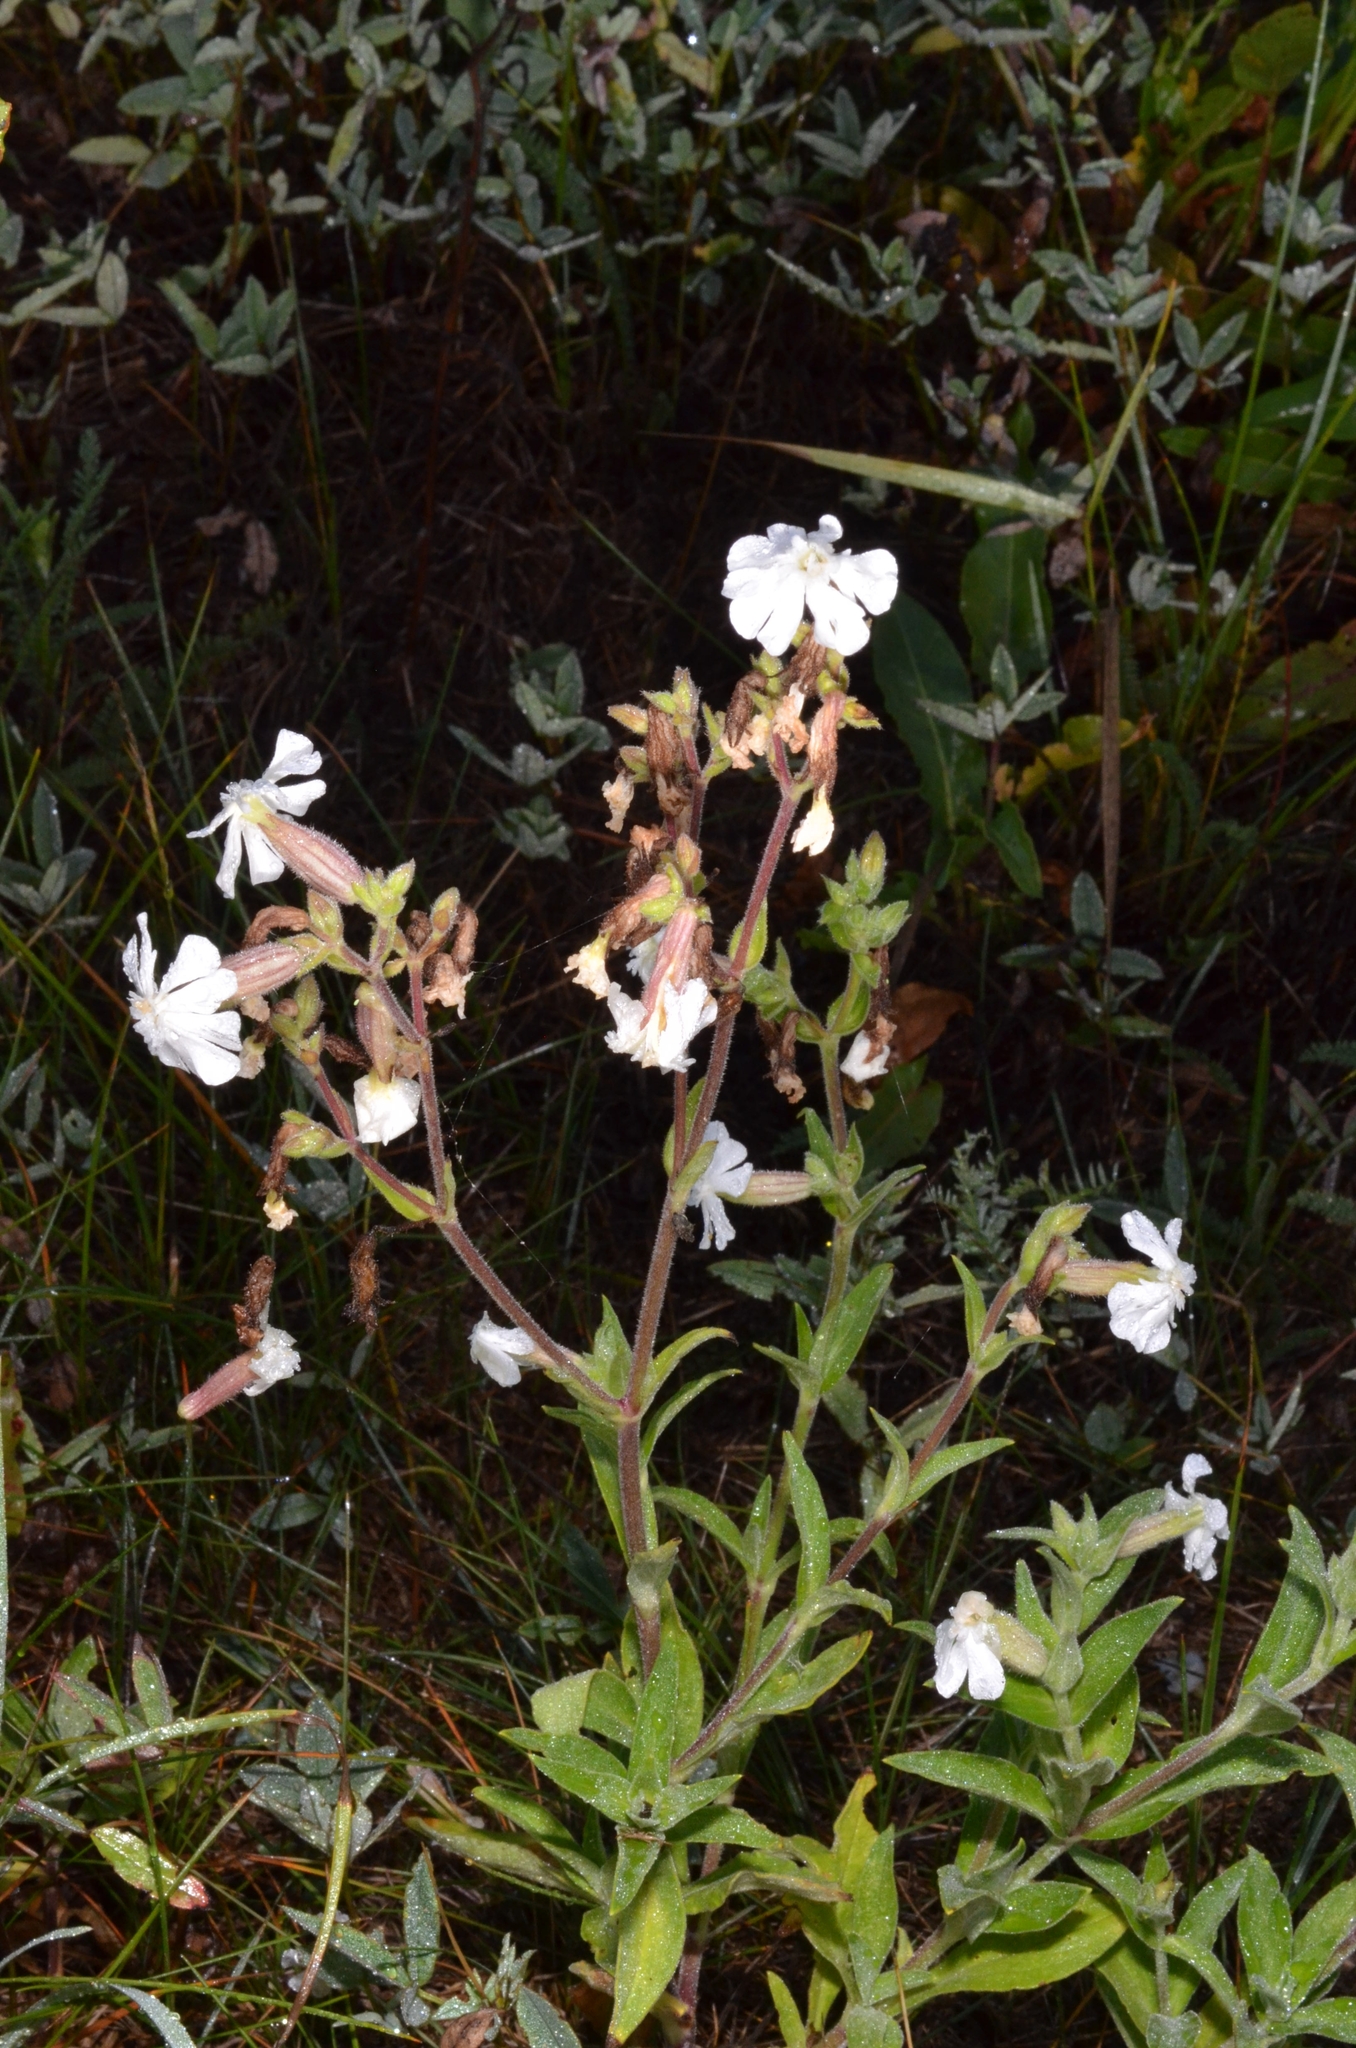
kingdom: Plantae
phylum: Tracheophyta
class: Magnoliopsida
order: Caryophyllales
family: Caryophyllaceae
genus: Silene
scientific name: Silene latifolia
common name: White campion
